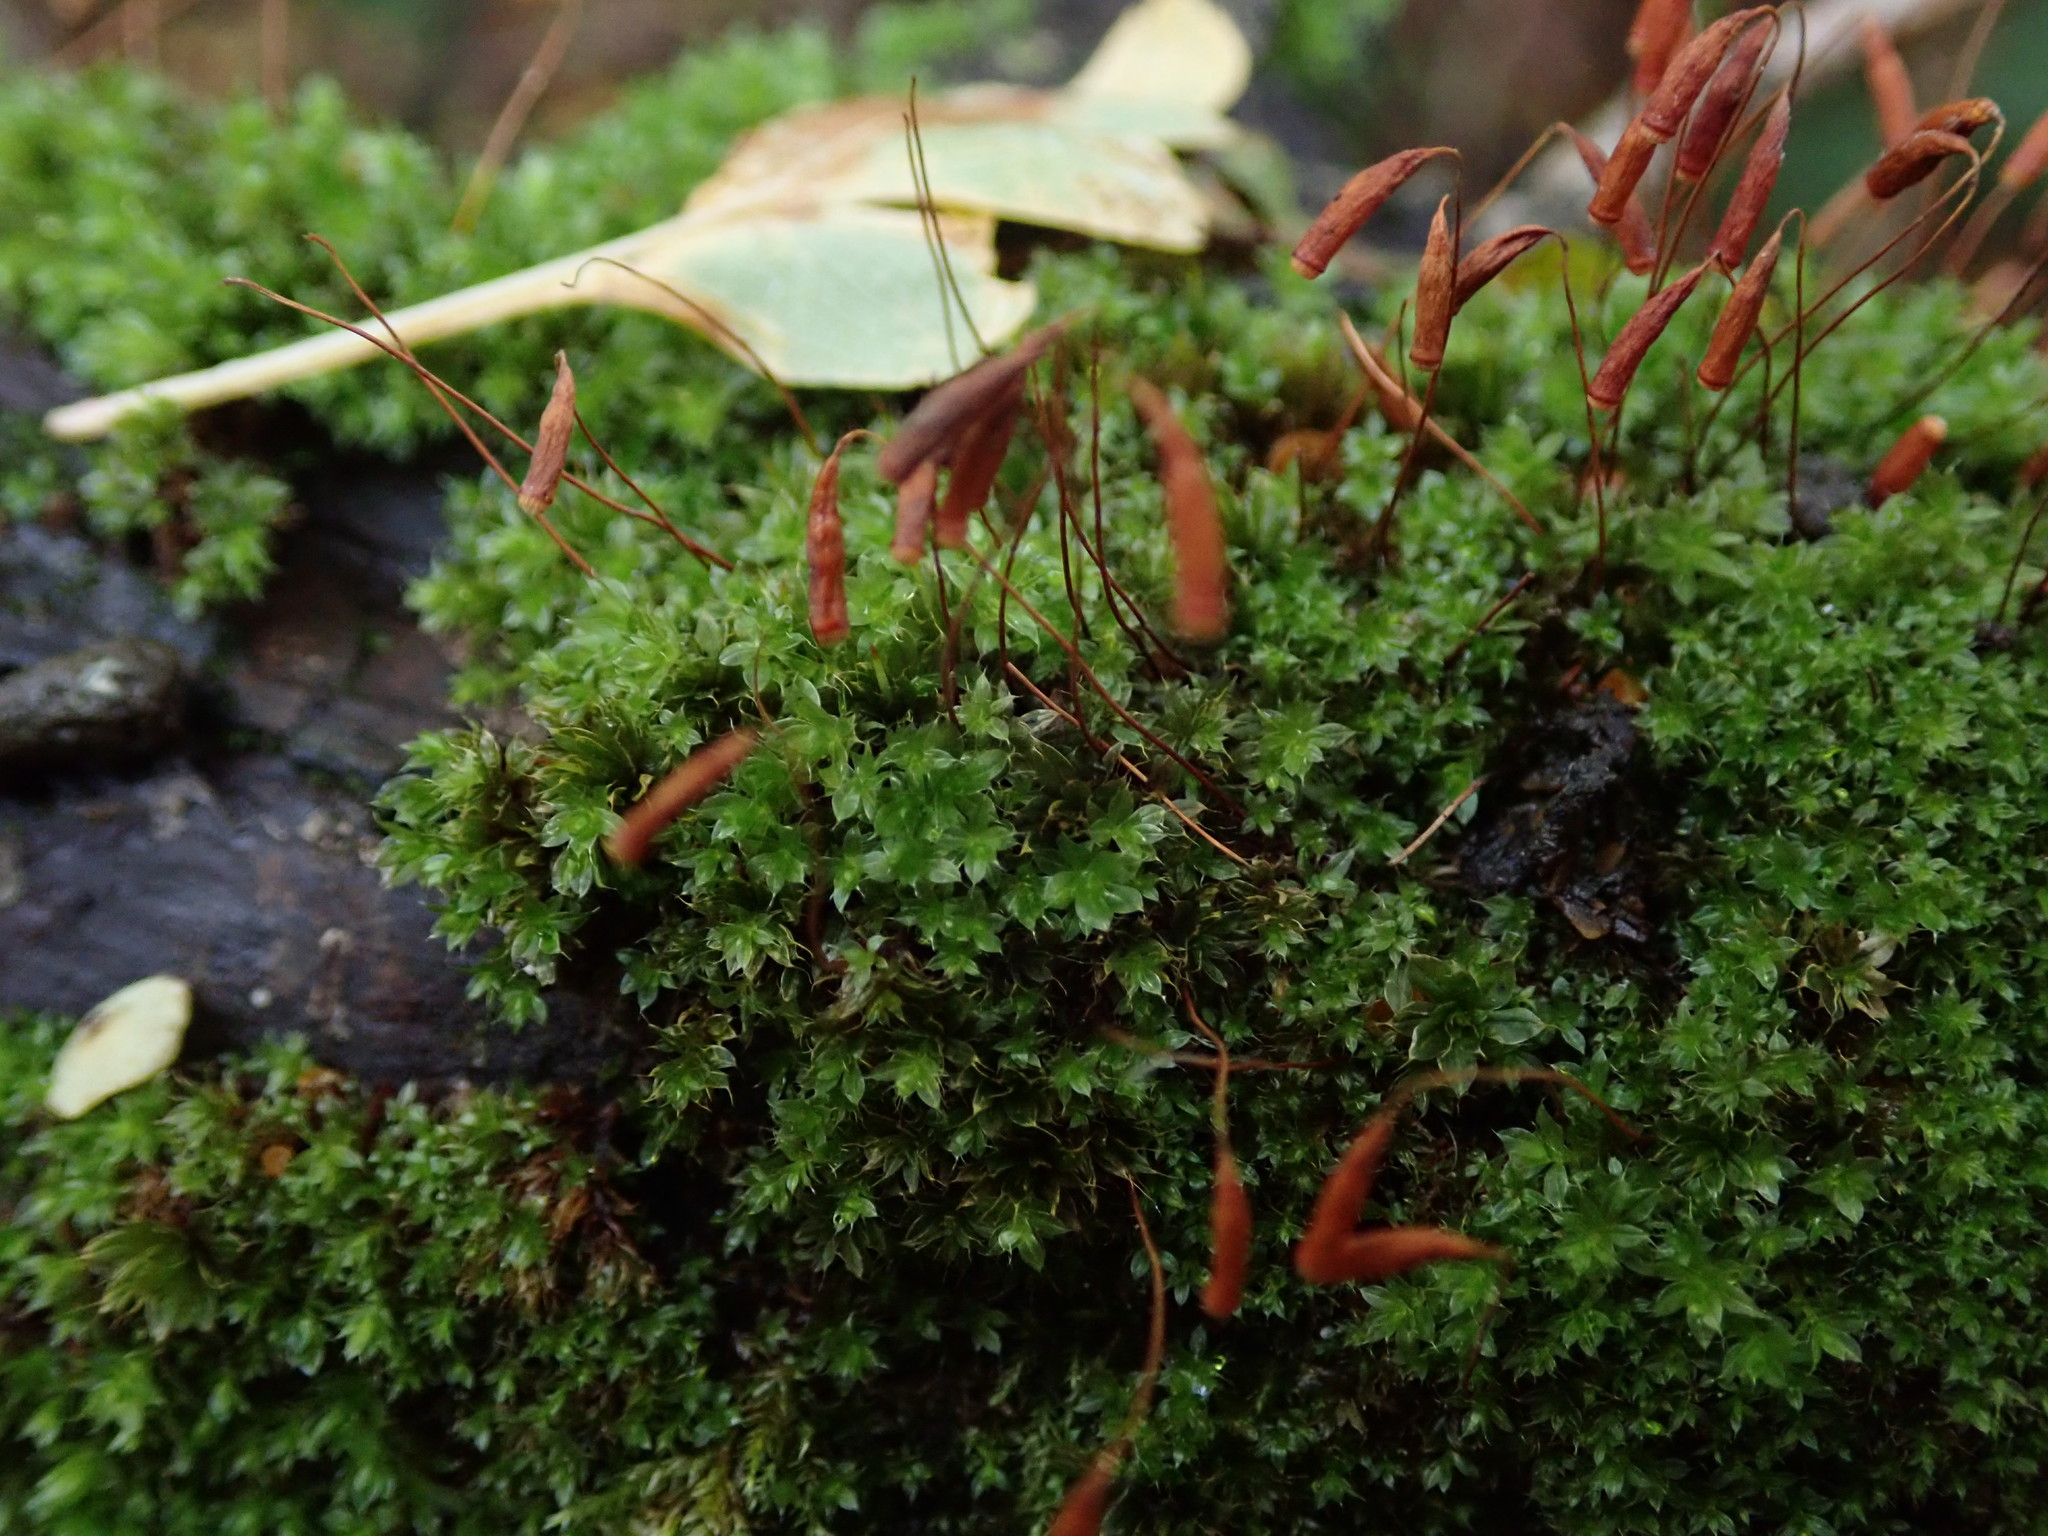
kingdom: Plantae
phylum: Bryophyta
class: Bryopsida
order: Bryales
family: Bryaceae
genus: Rosulabryum
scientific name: Rosulabryum capillare
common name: Capillary thread-moss
